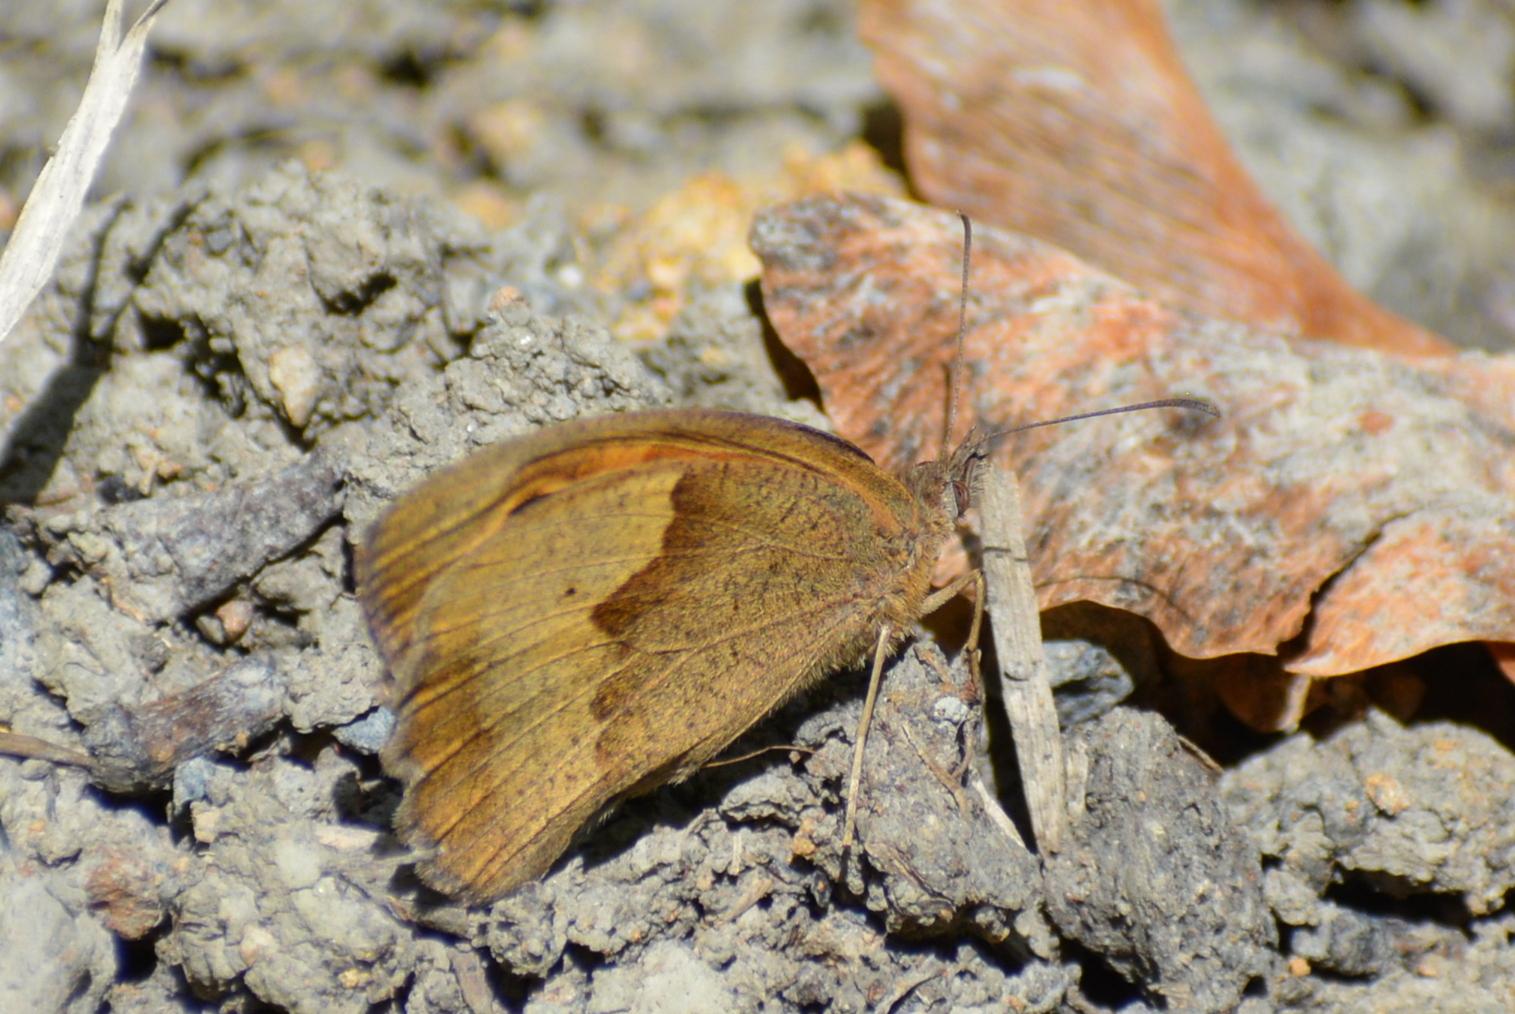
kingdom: Animalia
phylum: Arthropoda
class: Insecta
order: Lepidoptera
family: Nymphalidae
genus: Maniola
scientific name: Maniola jurtina
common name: Meadow brown
